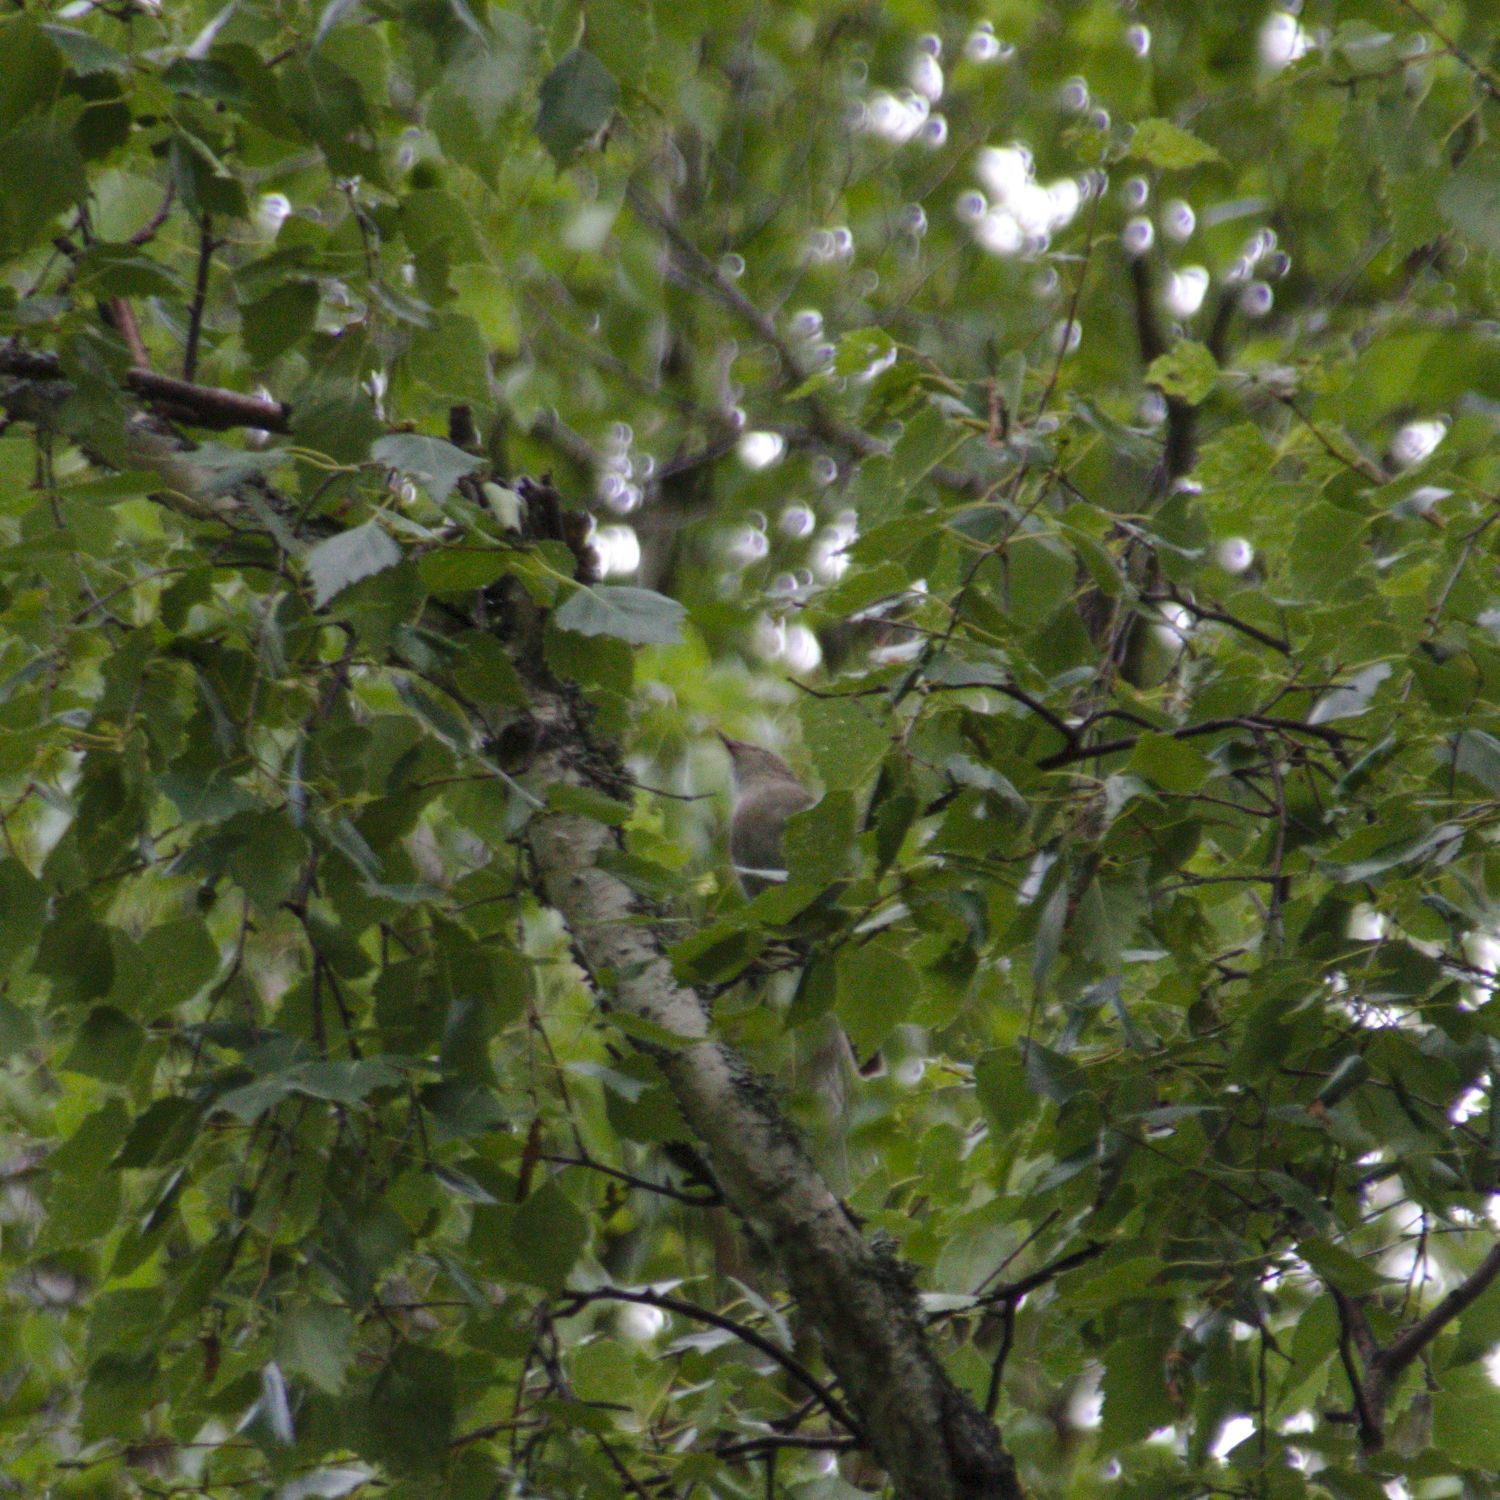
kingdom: Animalia
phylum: Chordata
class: Aves
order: Passeriformes
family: Sylviidae
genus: Sylvia
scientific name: Sylvia borin
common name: Garden warbler
